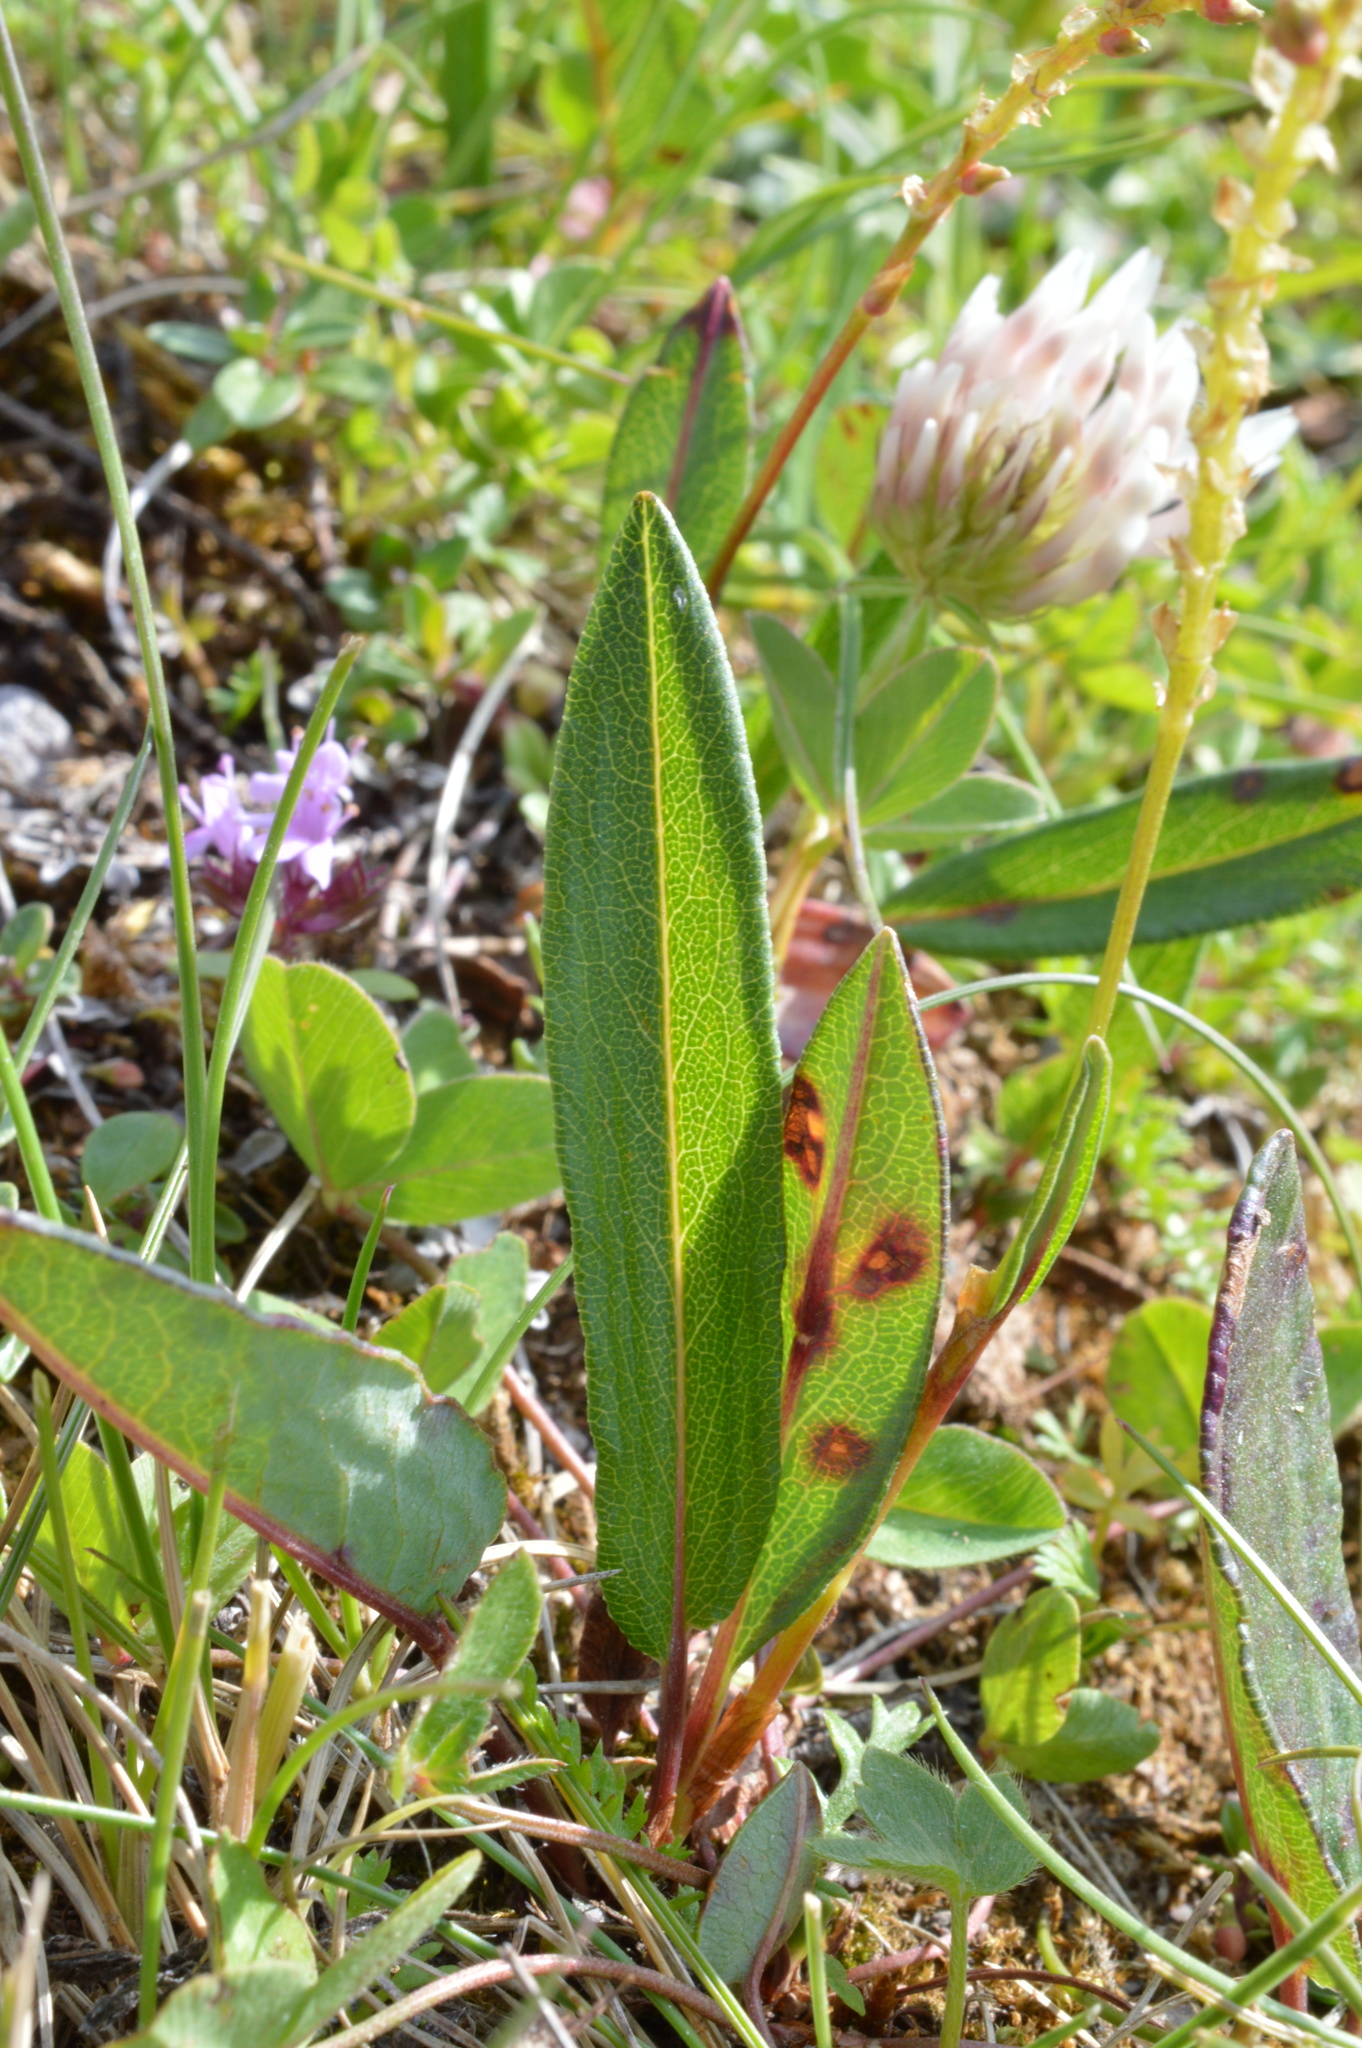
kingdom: Plantae
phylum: Tracheophyta
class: Magnoliopsida
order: Caryophyllales
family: Polygonaceae
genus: Bistorta
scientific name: Bistorta vivipara
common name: Alpine bistort
